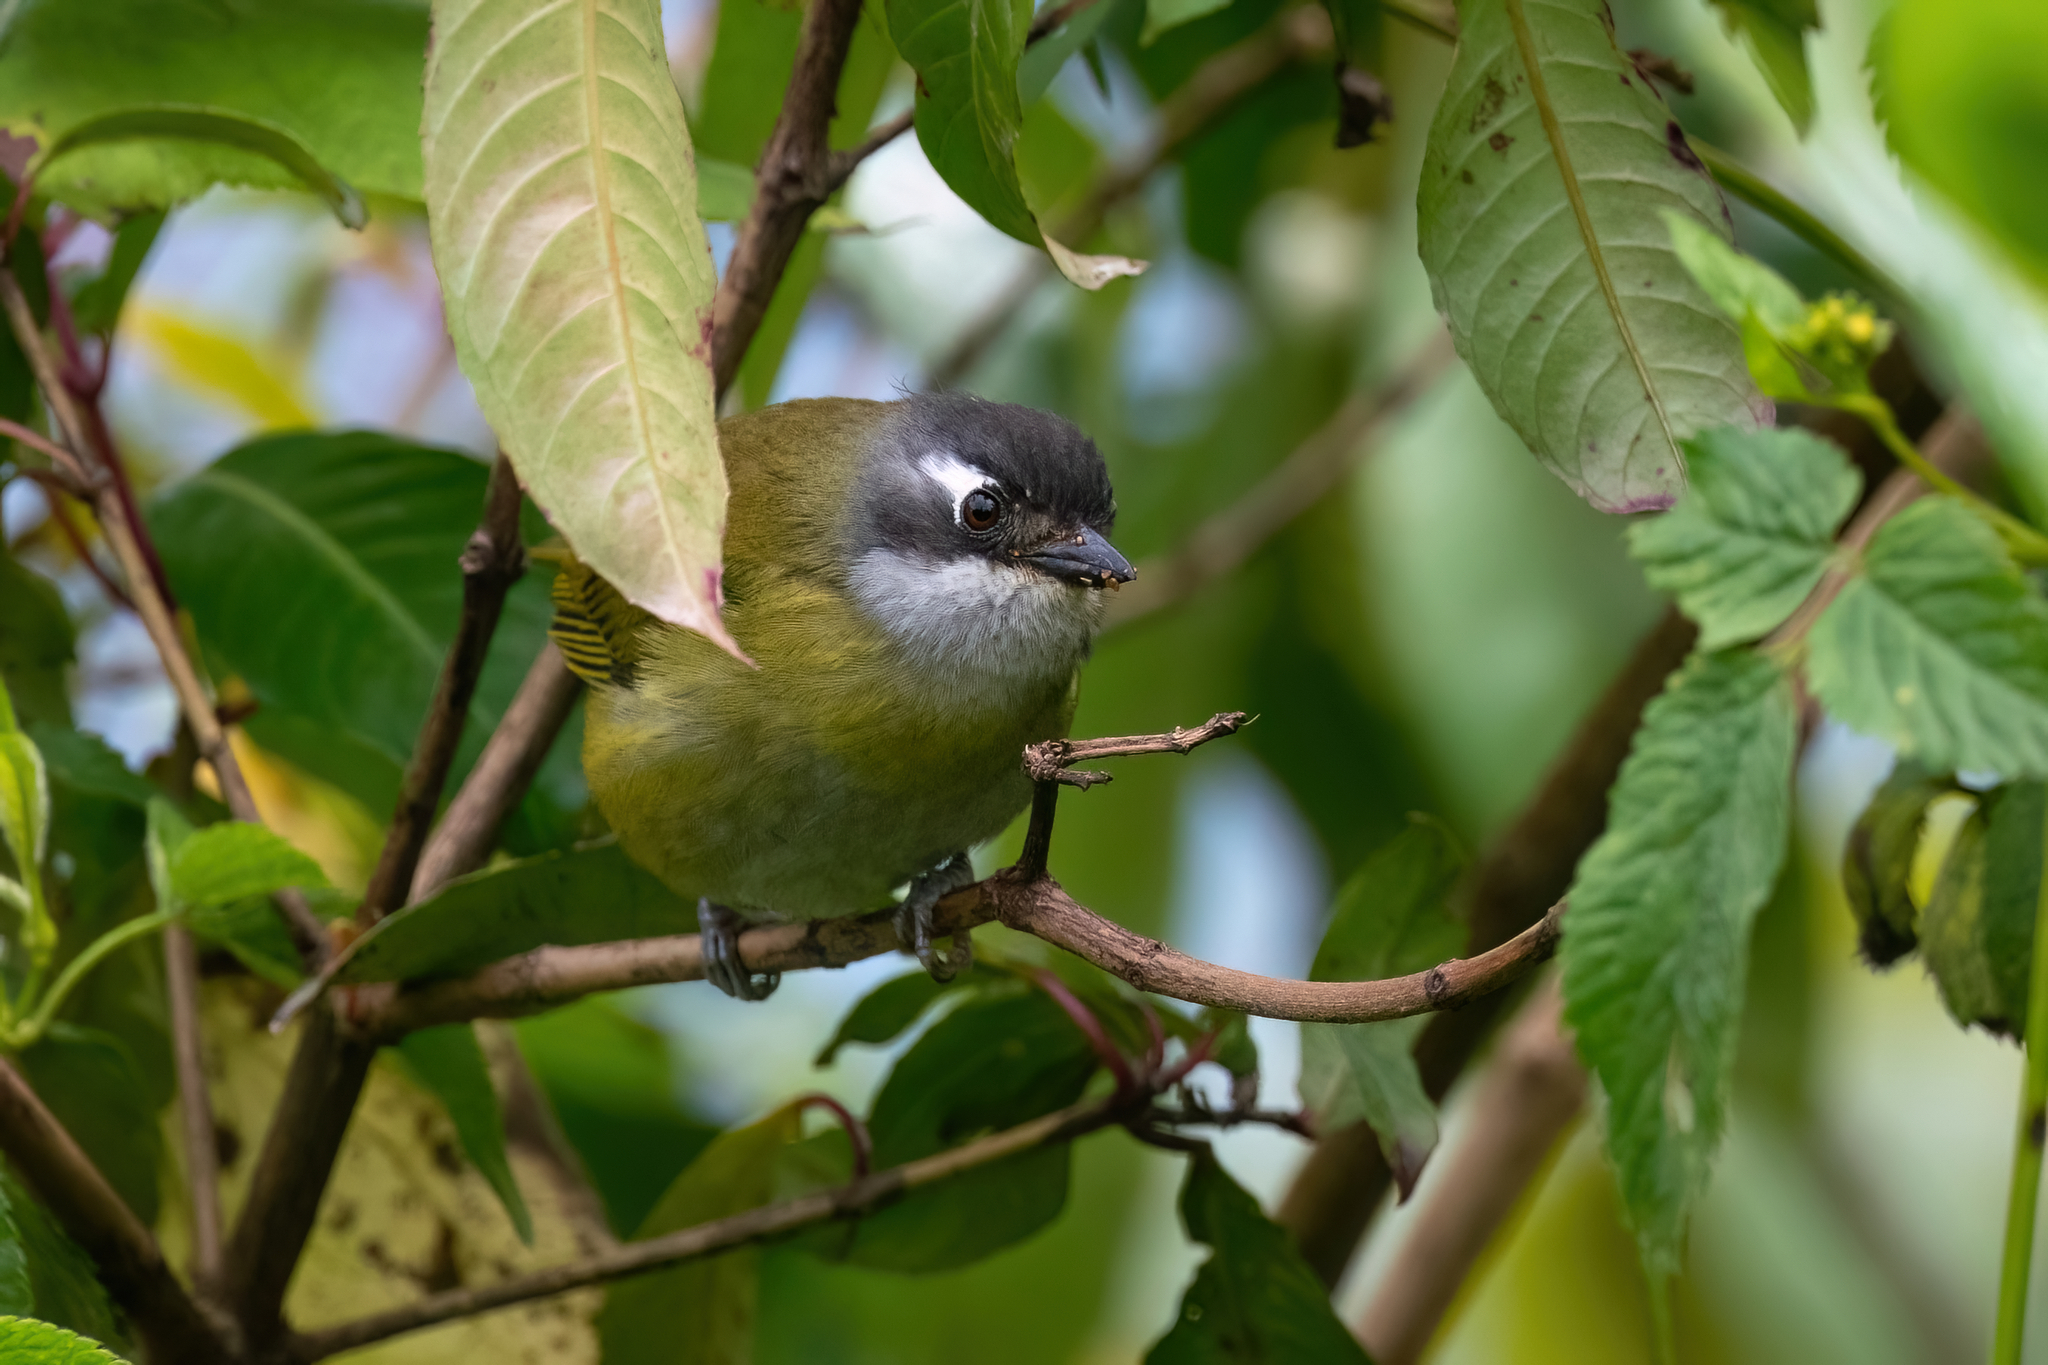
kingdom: Animalia
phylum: Chordata
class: Aves
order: Passeriformes
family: Passerellidae
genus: Chlorospingus
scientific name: Chlorospingus flavopectus
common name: Common chlorospingus
